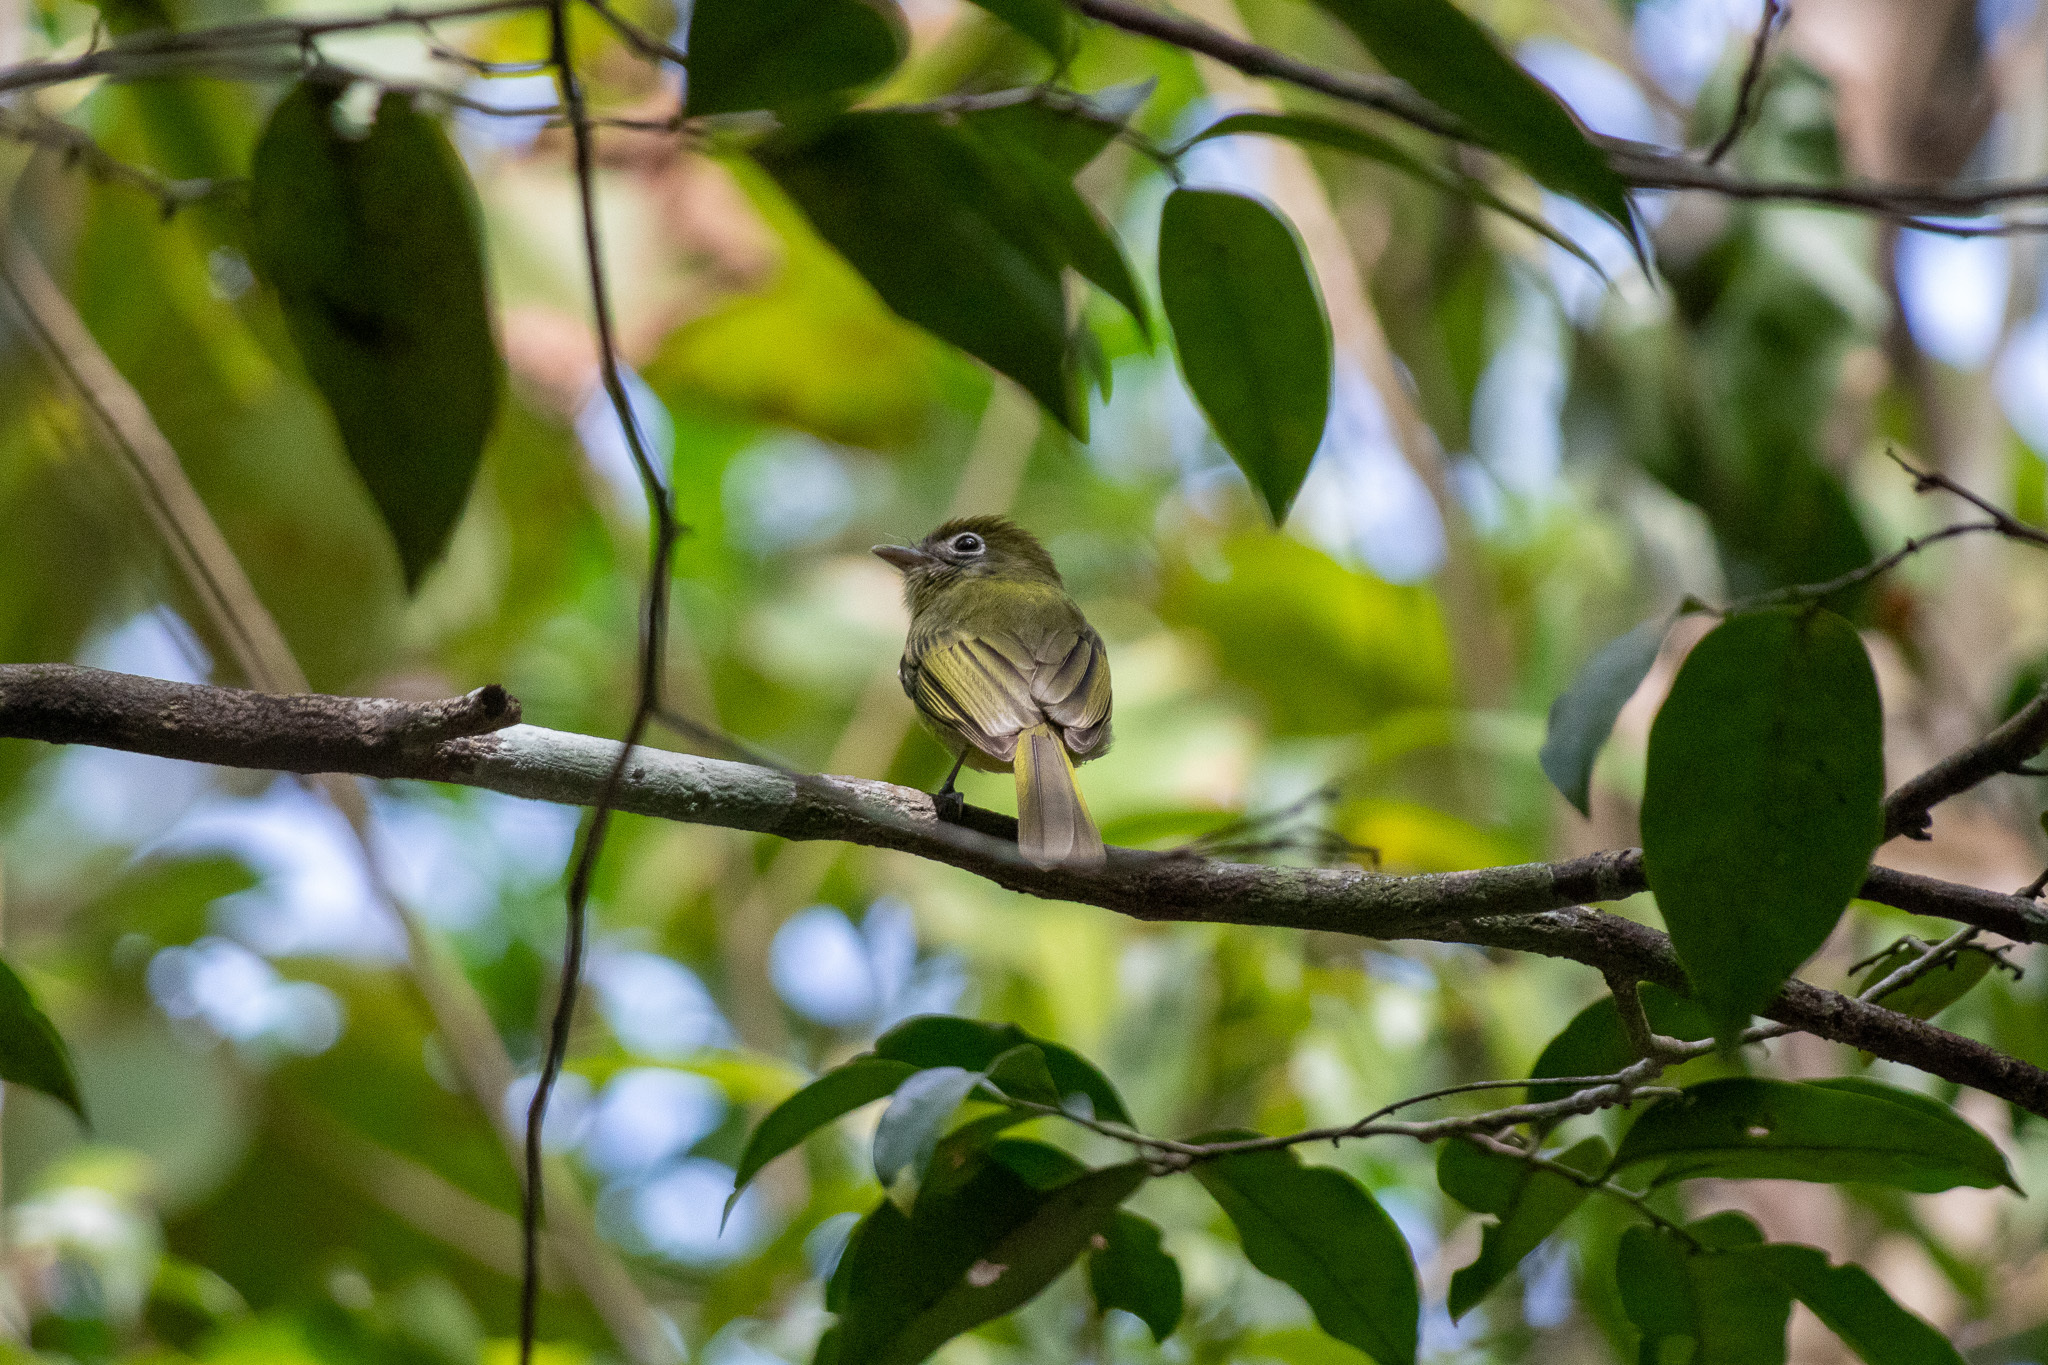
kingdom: Animalia
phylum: Chordata
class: Aves
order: Passeriformes
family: Tyrannidae
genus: Rhynchocyclus
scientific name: Rhynchocyclus brevirostris
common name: Eye-ringed flatbill
